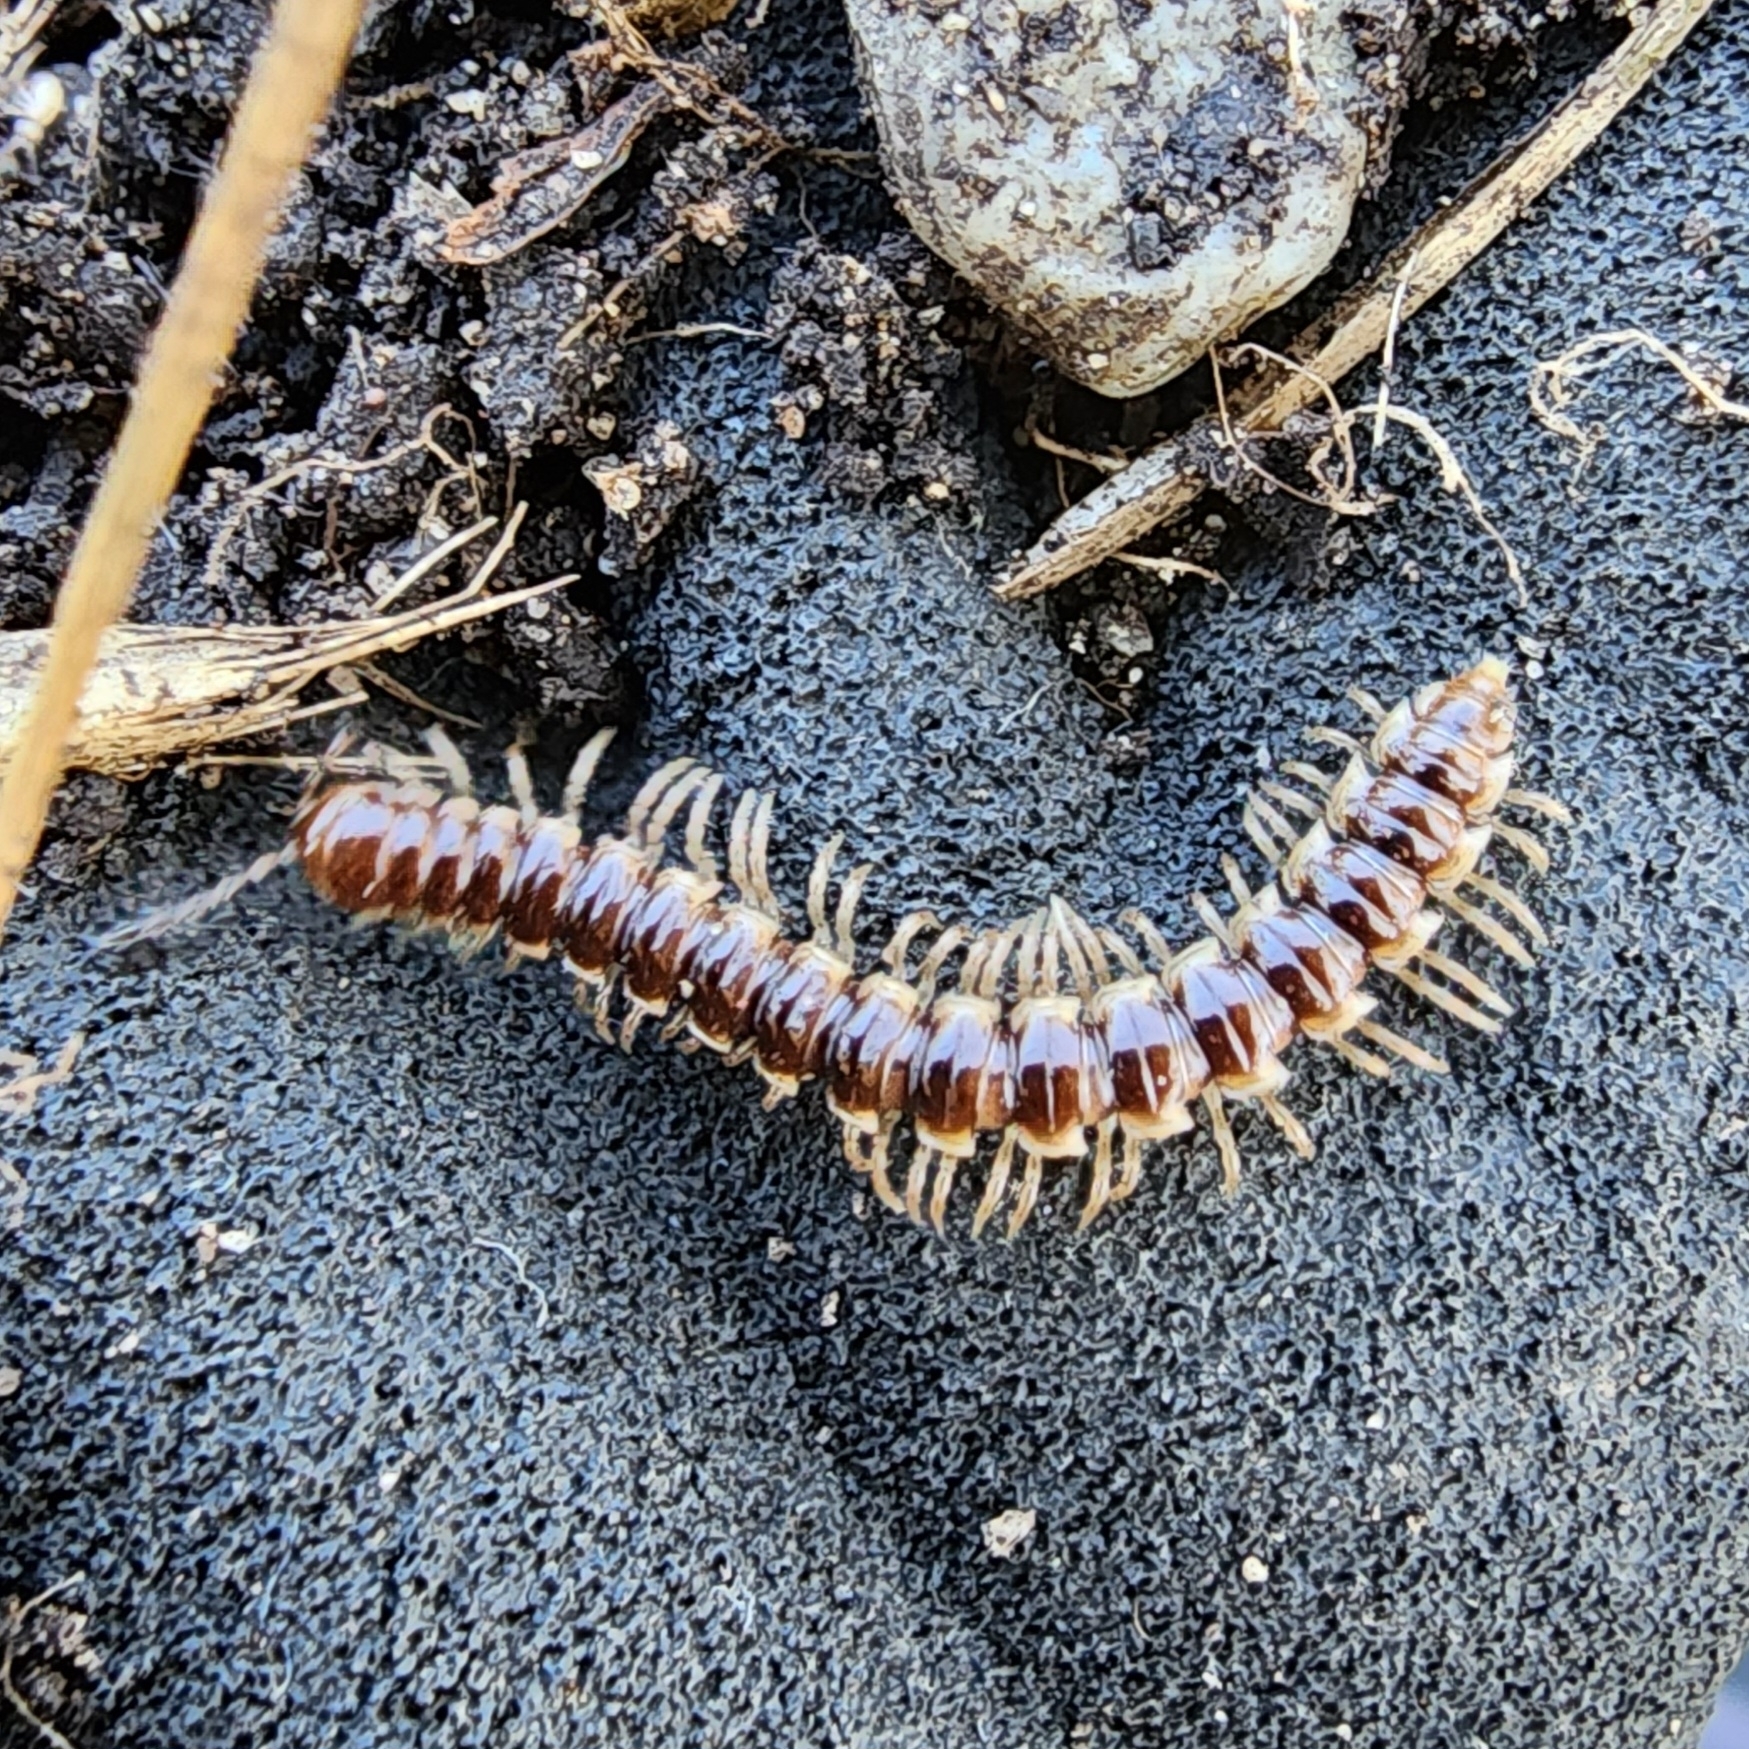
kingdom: Animalia
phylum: Arthropoda
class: Diplopoda
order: Polydesmida
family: Paradoxosomatidae
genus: Oxidus
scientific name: Oxidus gracilis
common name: Greenhouse millipede
